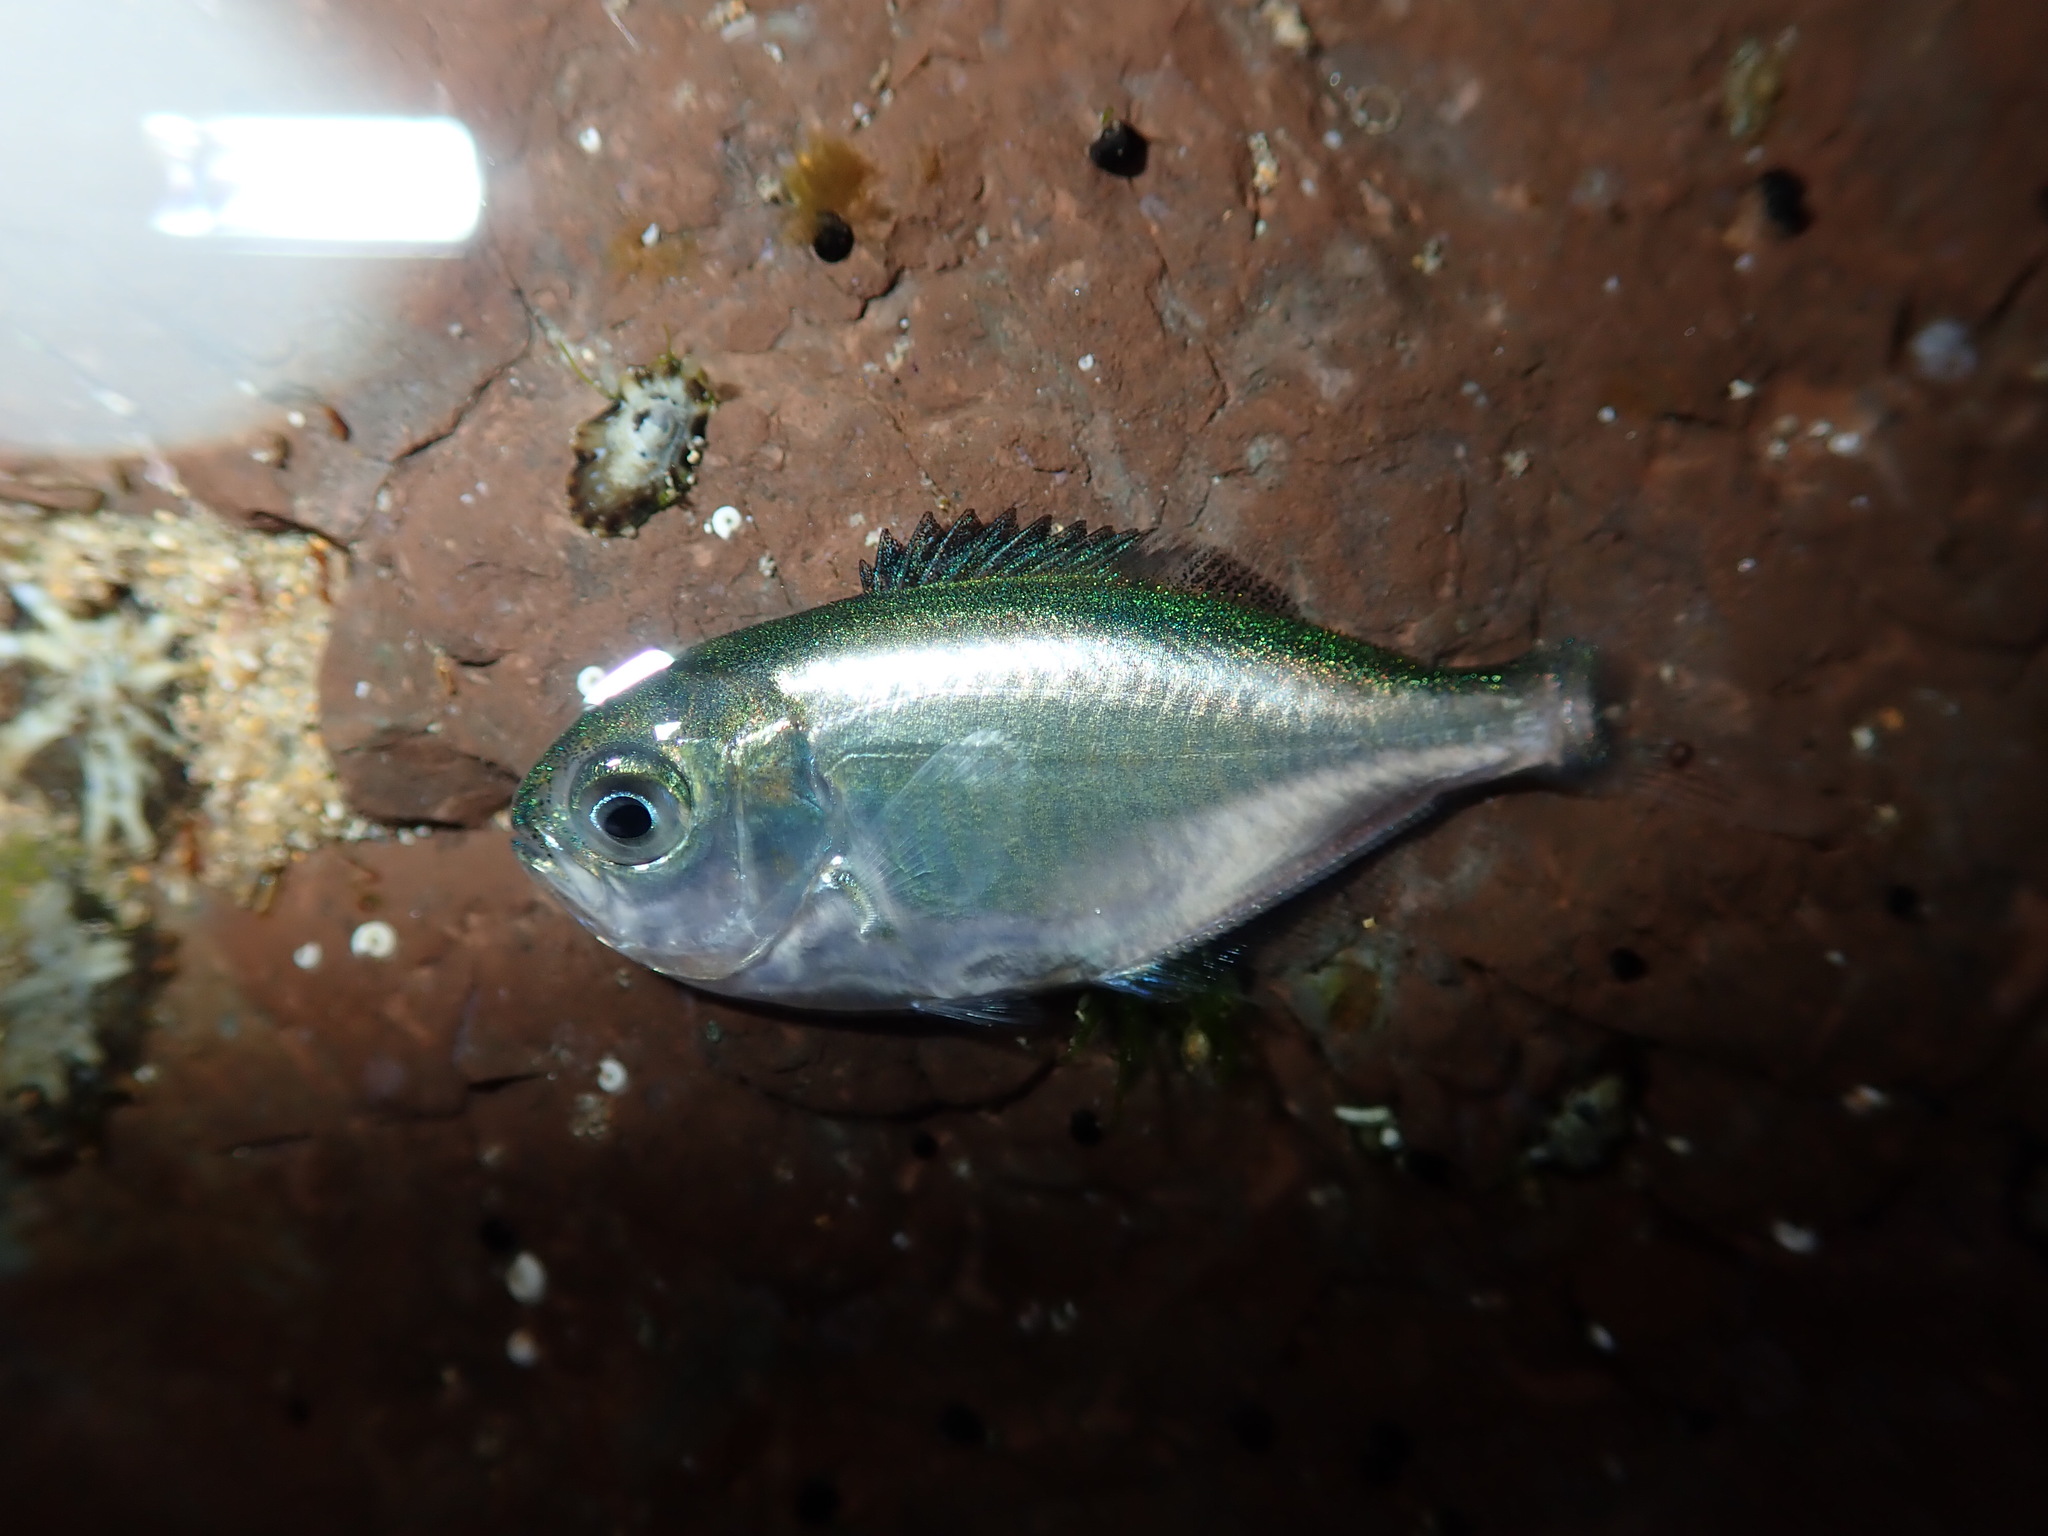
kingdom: Animalia
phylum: Chordata
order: Perciformes
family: Kyphosidae
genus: Scorpis
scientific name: Scorpis lineolata
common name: Sweep
